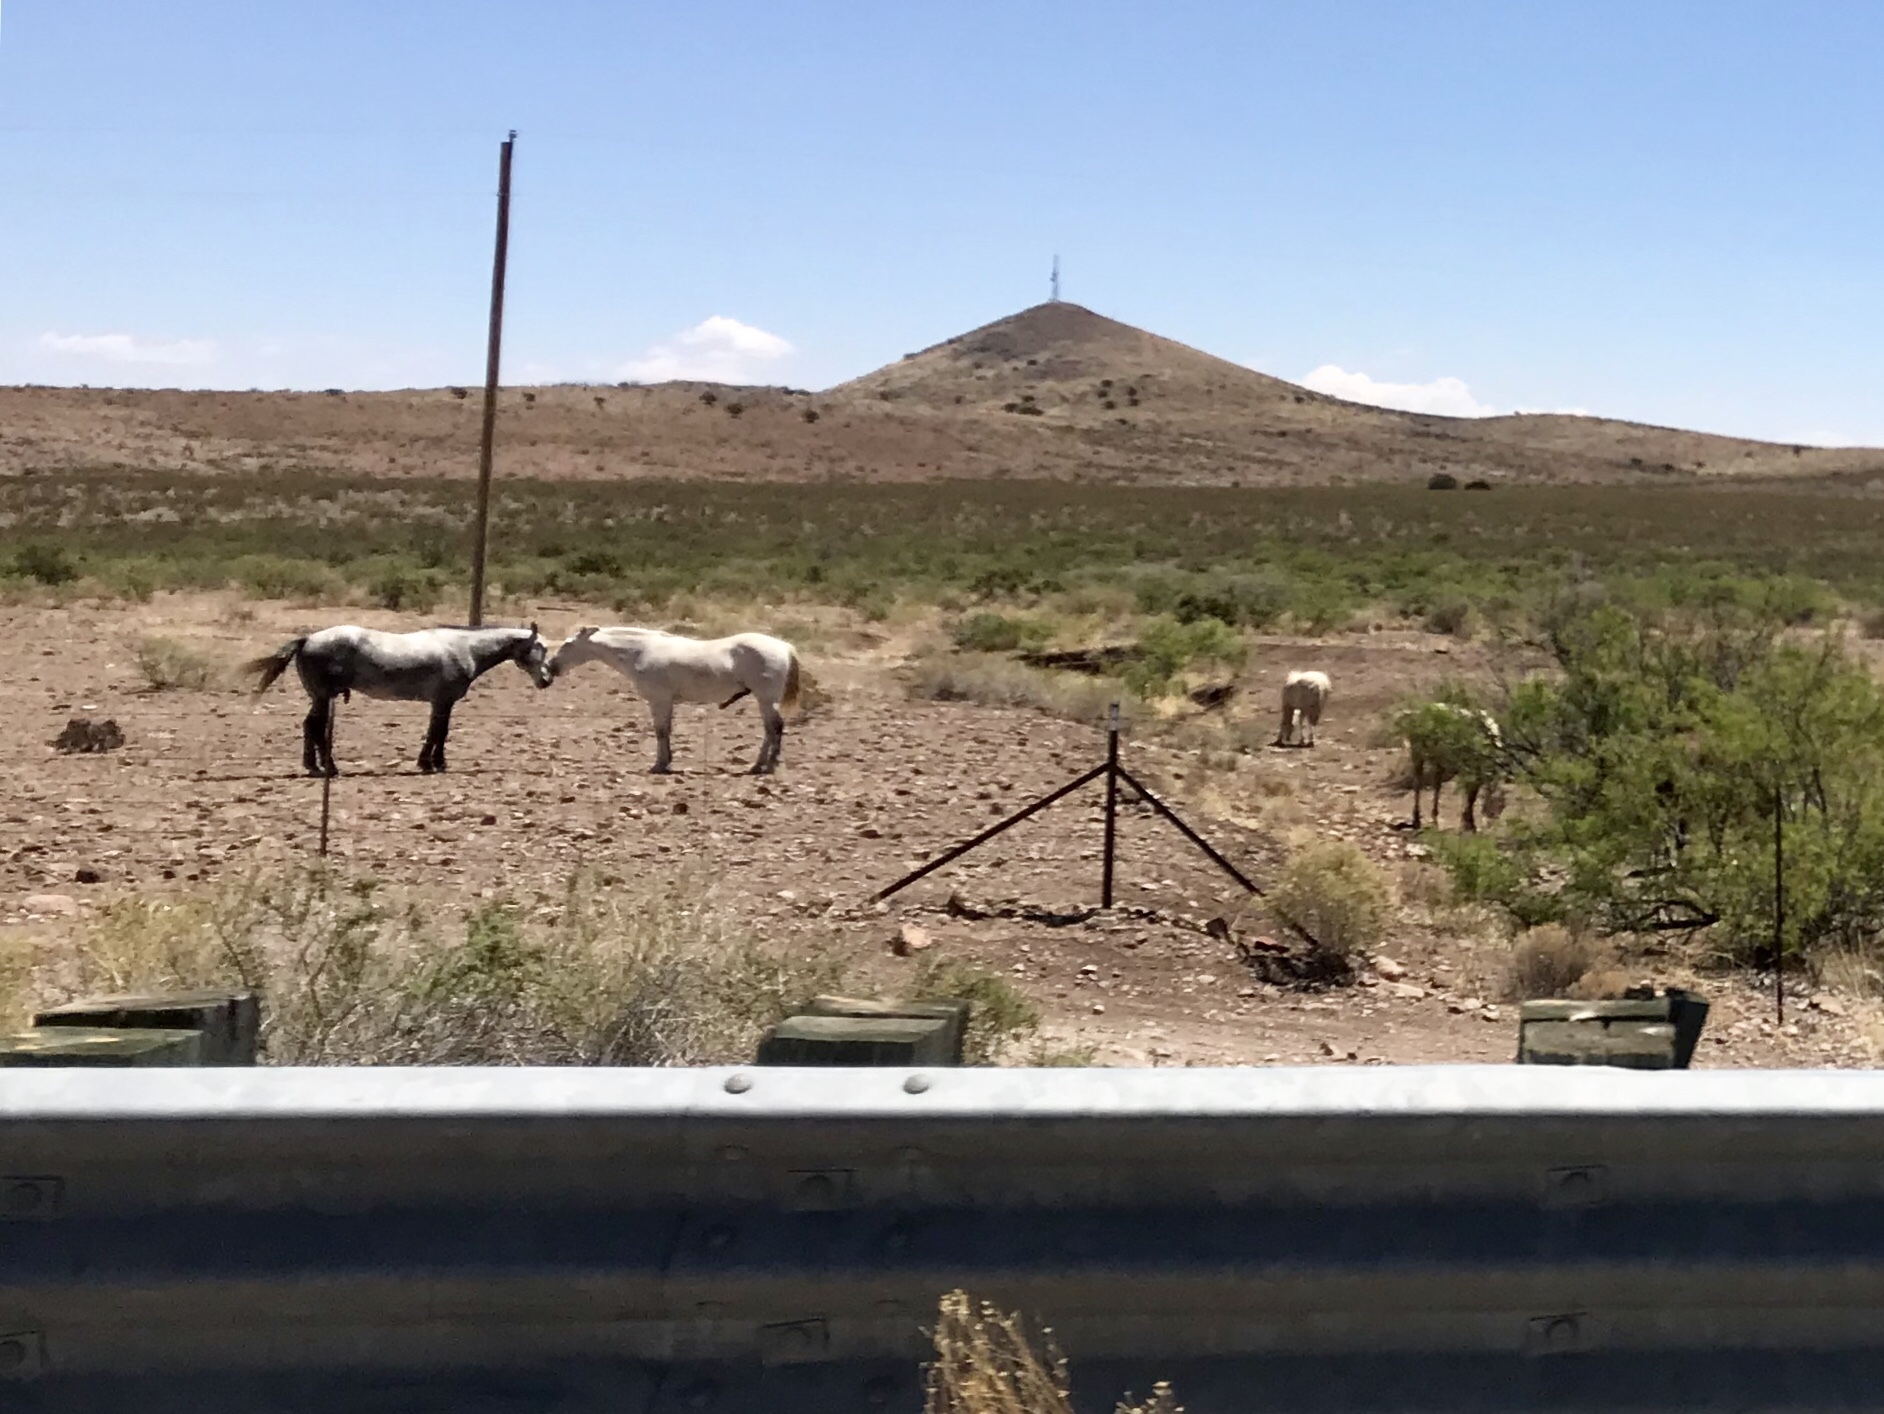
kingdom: Animalia
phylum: Chordata
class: Mammalia
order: Perissodactyla
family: Equidae
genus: Equus
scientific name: Equus caballus
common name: Horse
